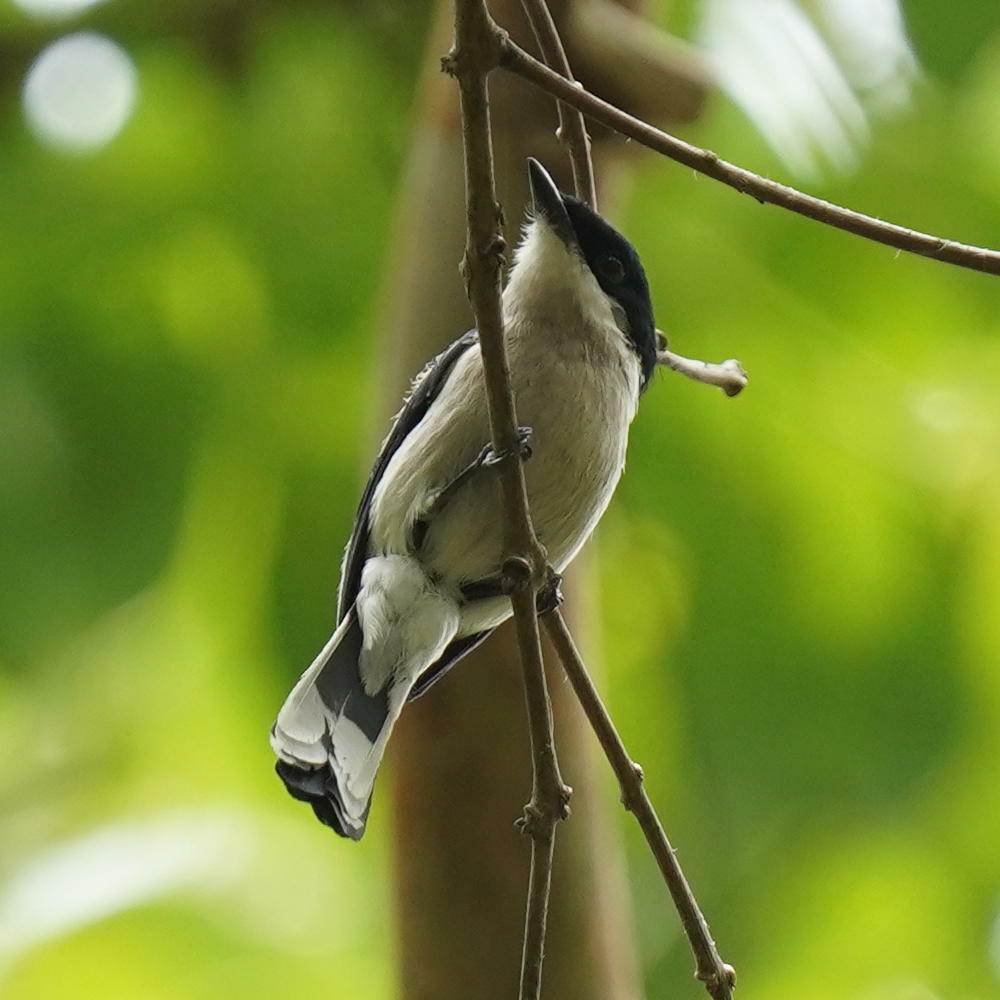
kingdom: Animalia
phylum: Chordata
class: Aves
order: Passeriformes
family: Tephrodornithidae
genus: Hemipus
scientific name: Hemipus picatus
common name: Bar-winged flycatcher-shrike
